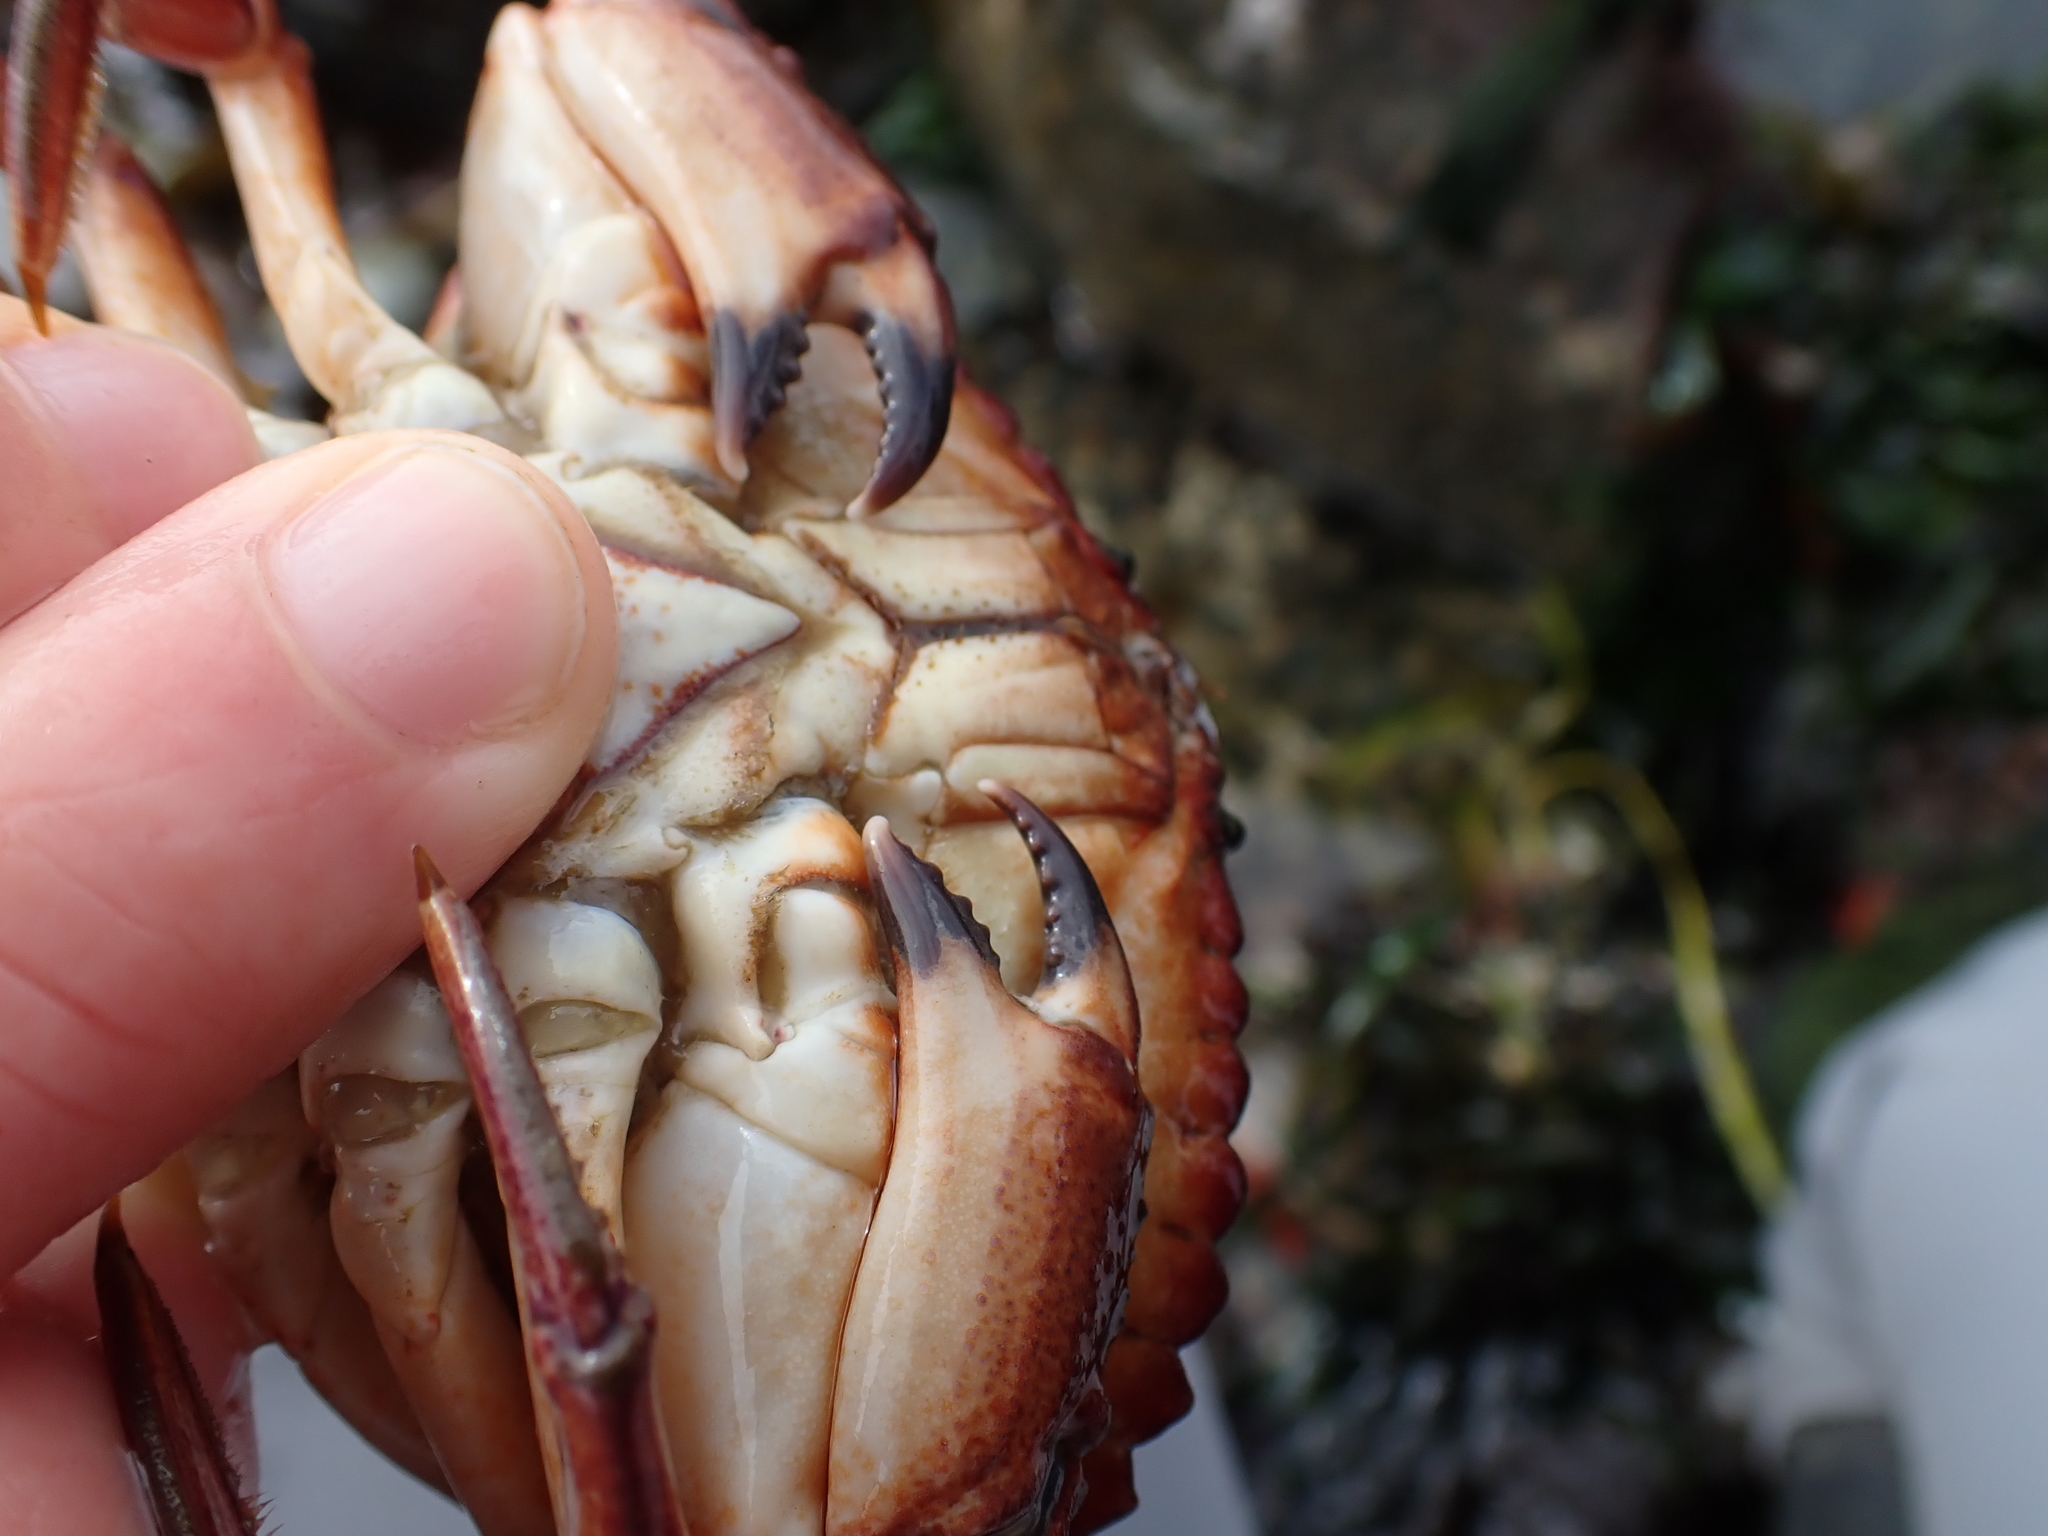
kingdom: Animalia
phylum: Arthropoda
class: Malacostraca
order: Decapoda
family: Cancridae
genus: Cancer
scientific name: Cancer productus
